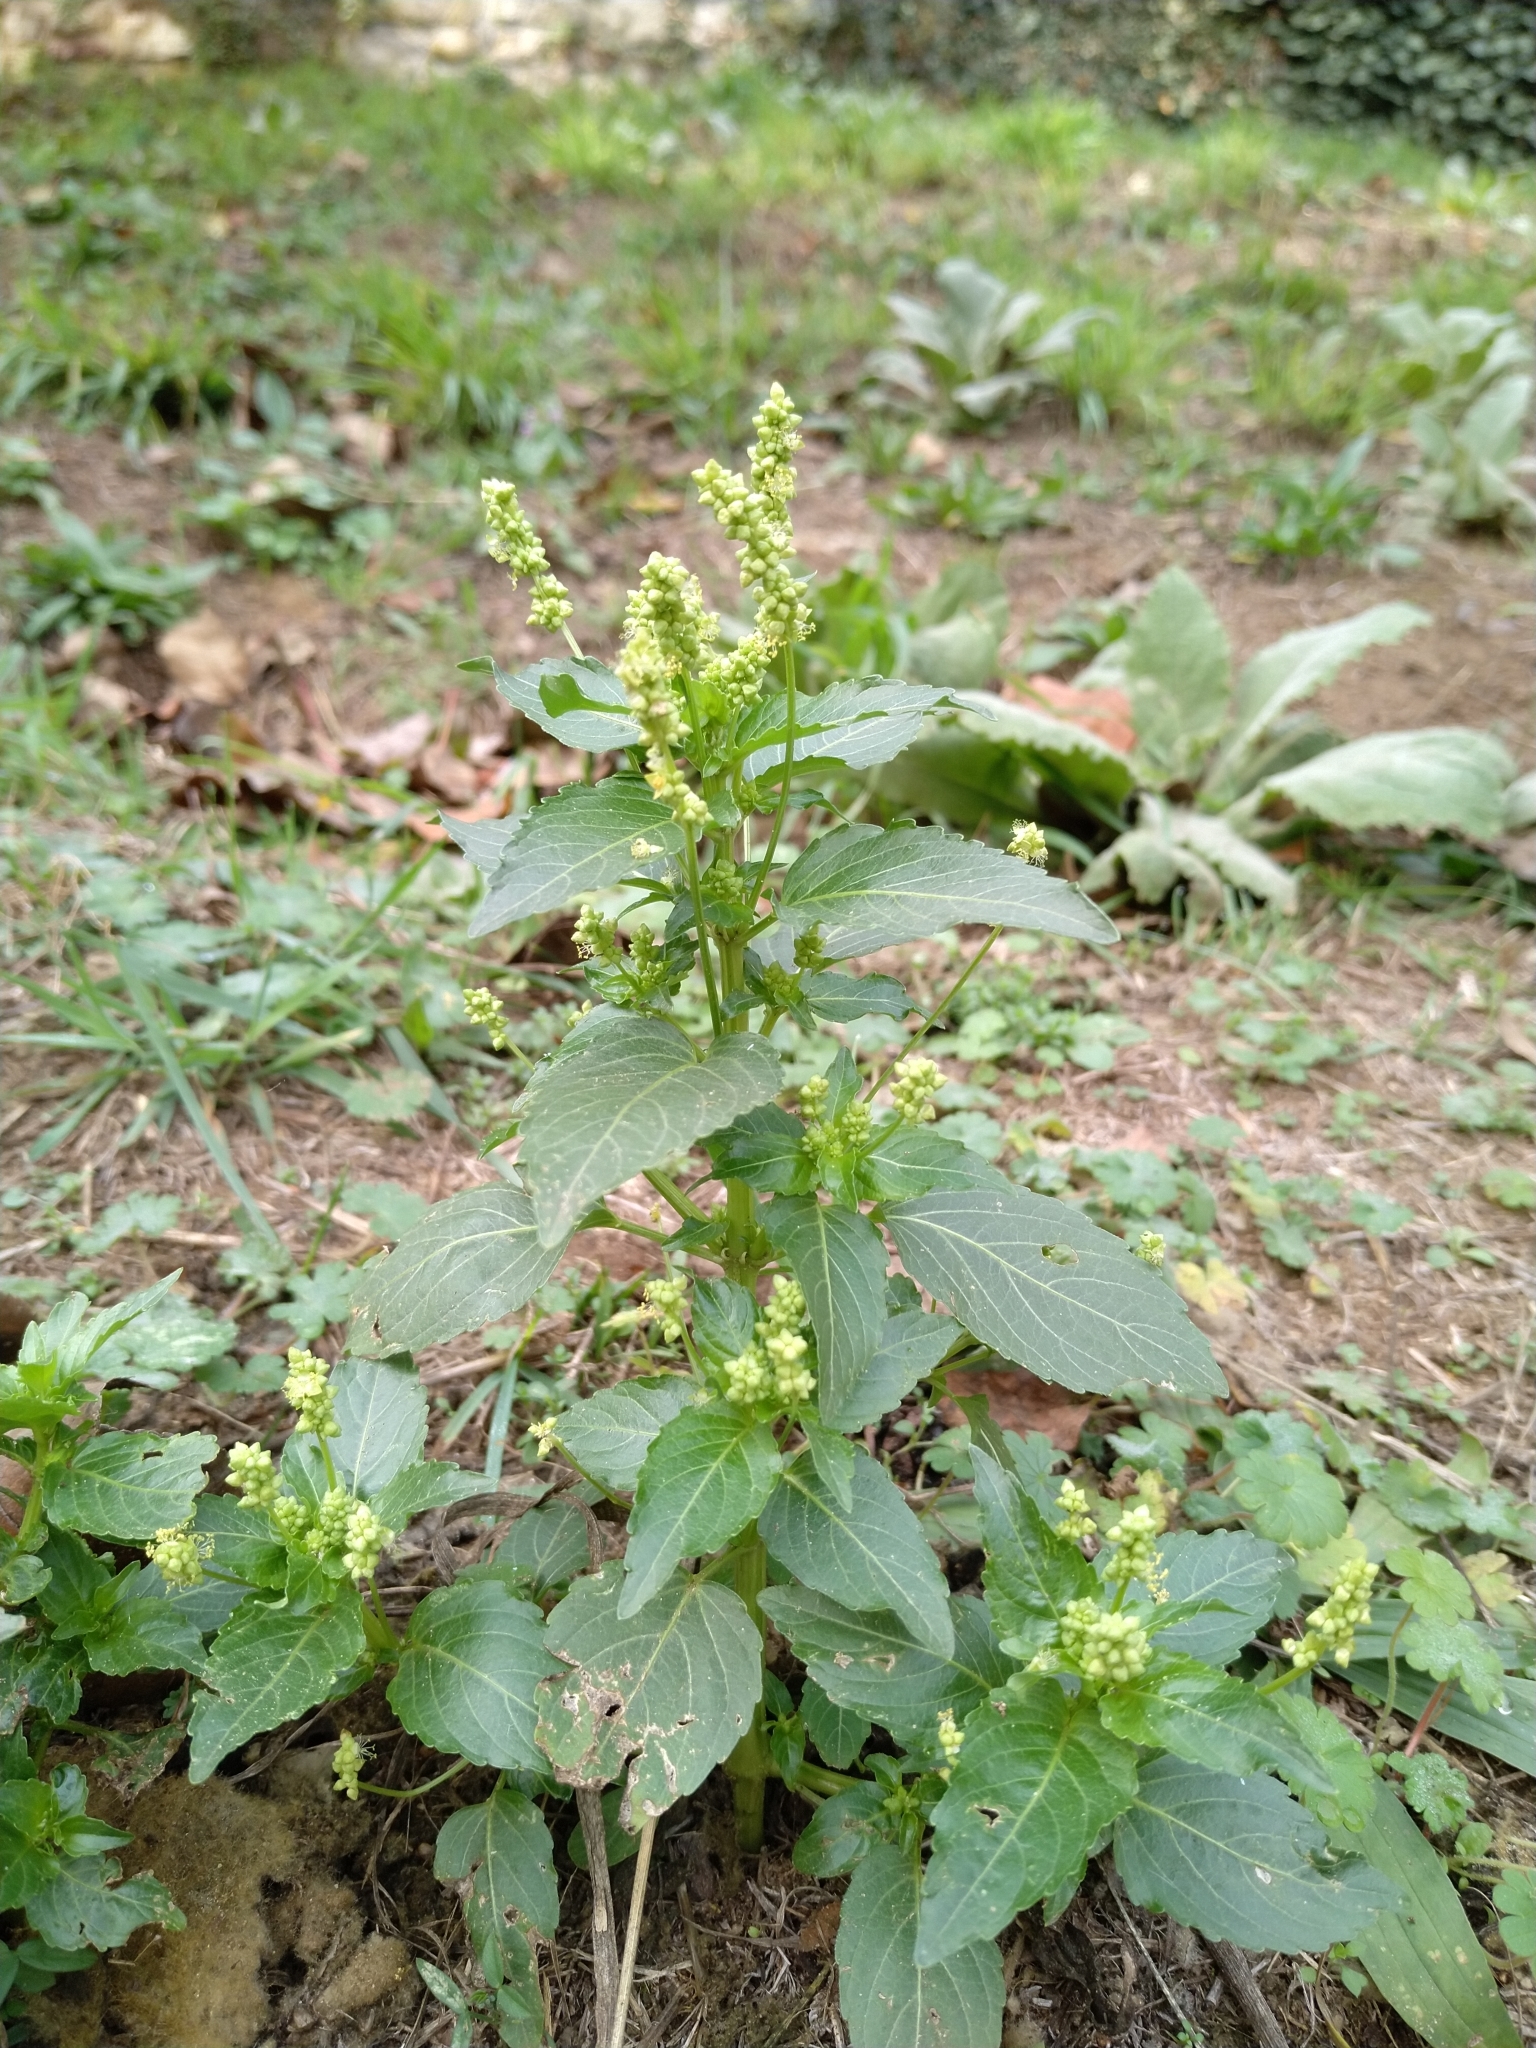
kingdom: Plantae
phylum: Tracheophyta
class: Magnoliopsida
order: Malpighiales
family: Euphorbiaceae
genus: Mercurialis
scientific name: Mercurialis annua
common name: Annual mercury
